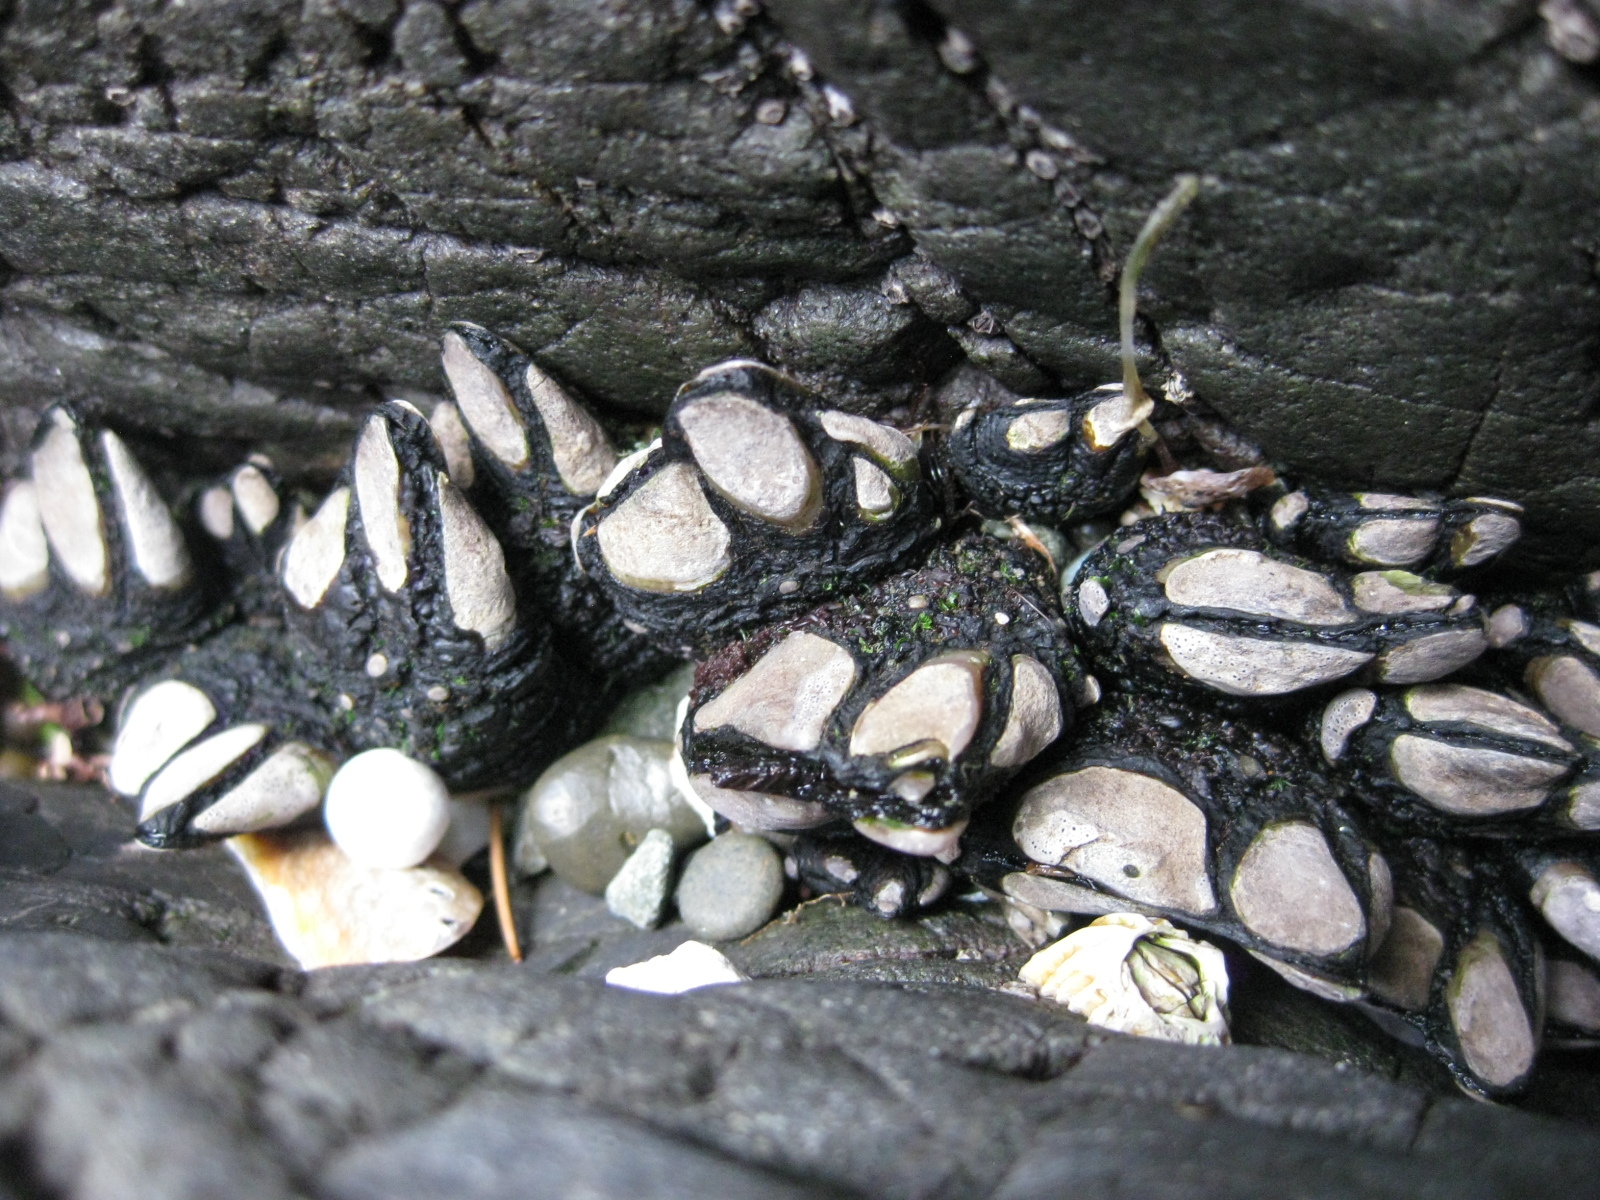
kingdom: Animalia
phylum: Arthropoda
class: Maxillopoda
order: Pedunculata
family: Calanticidae
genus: Calantica
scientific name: Calantica spinosa
